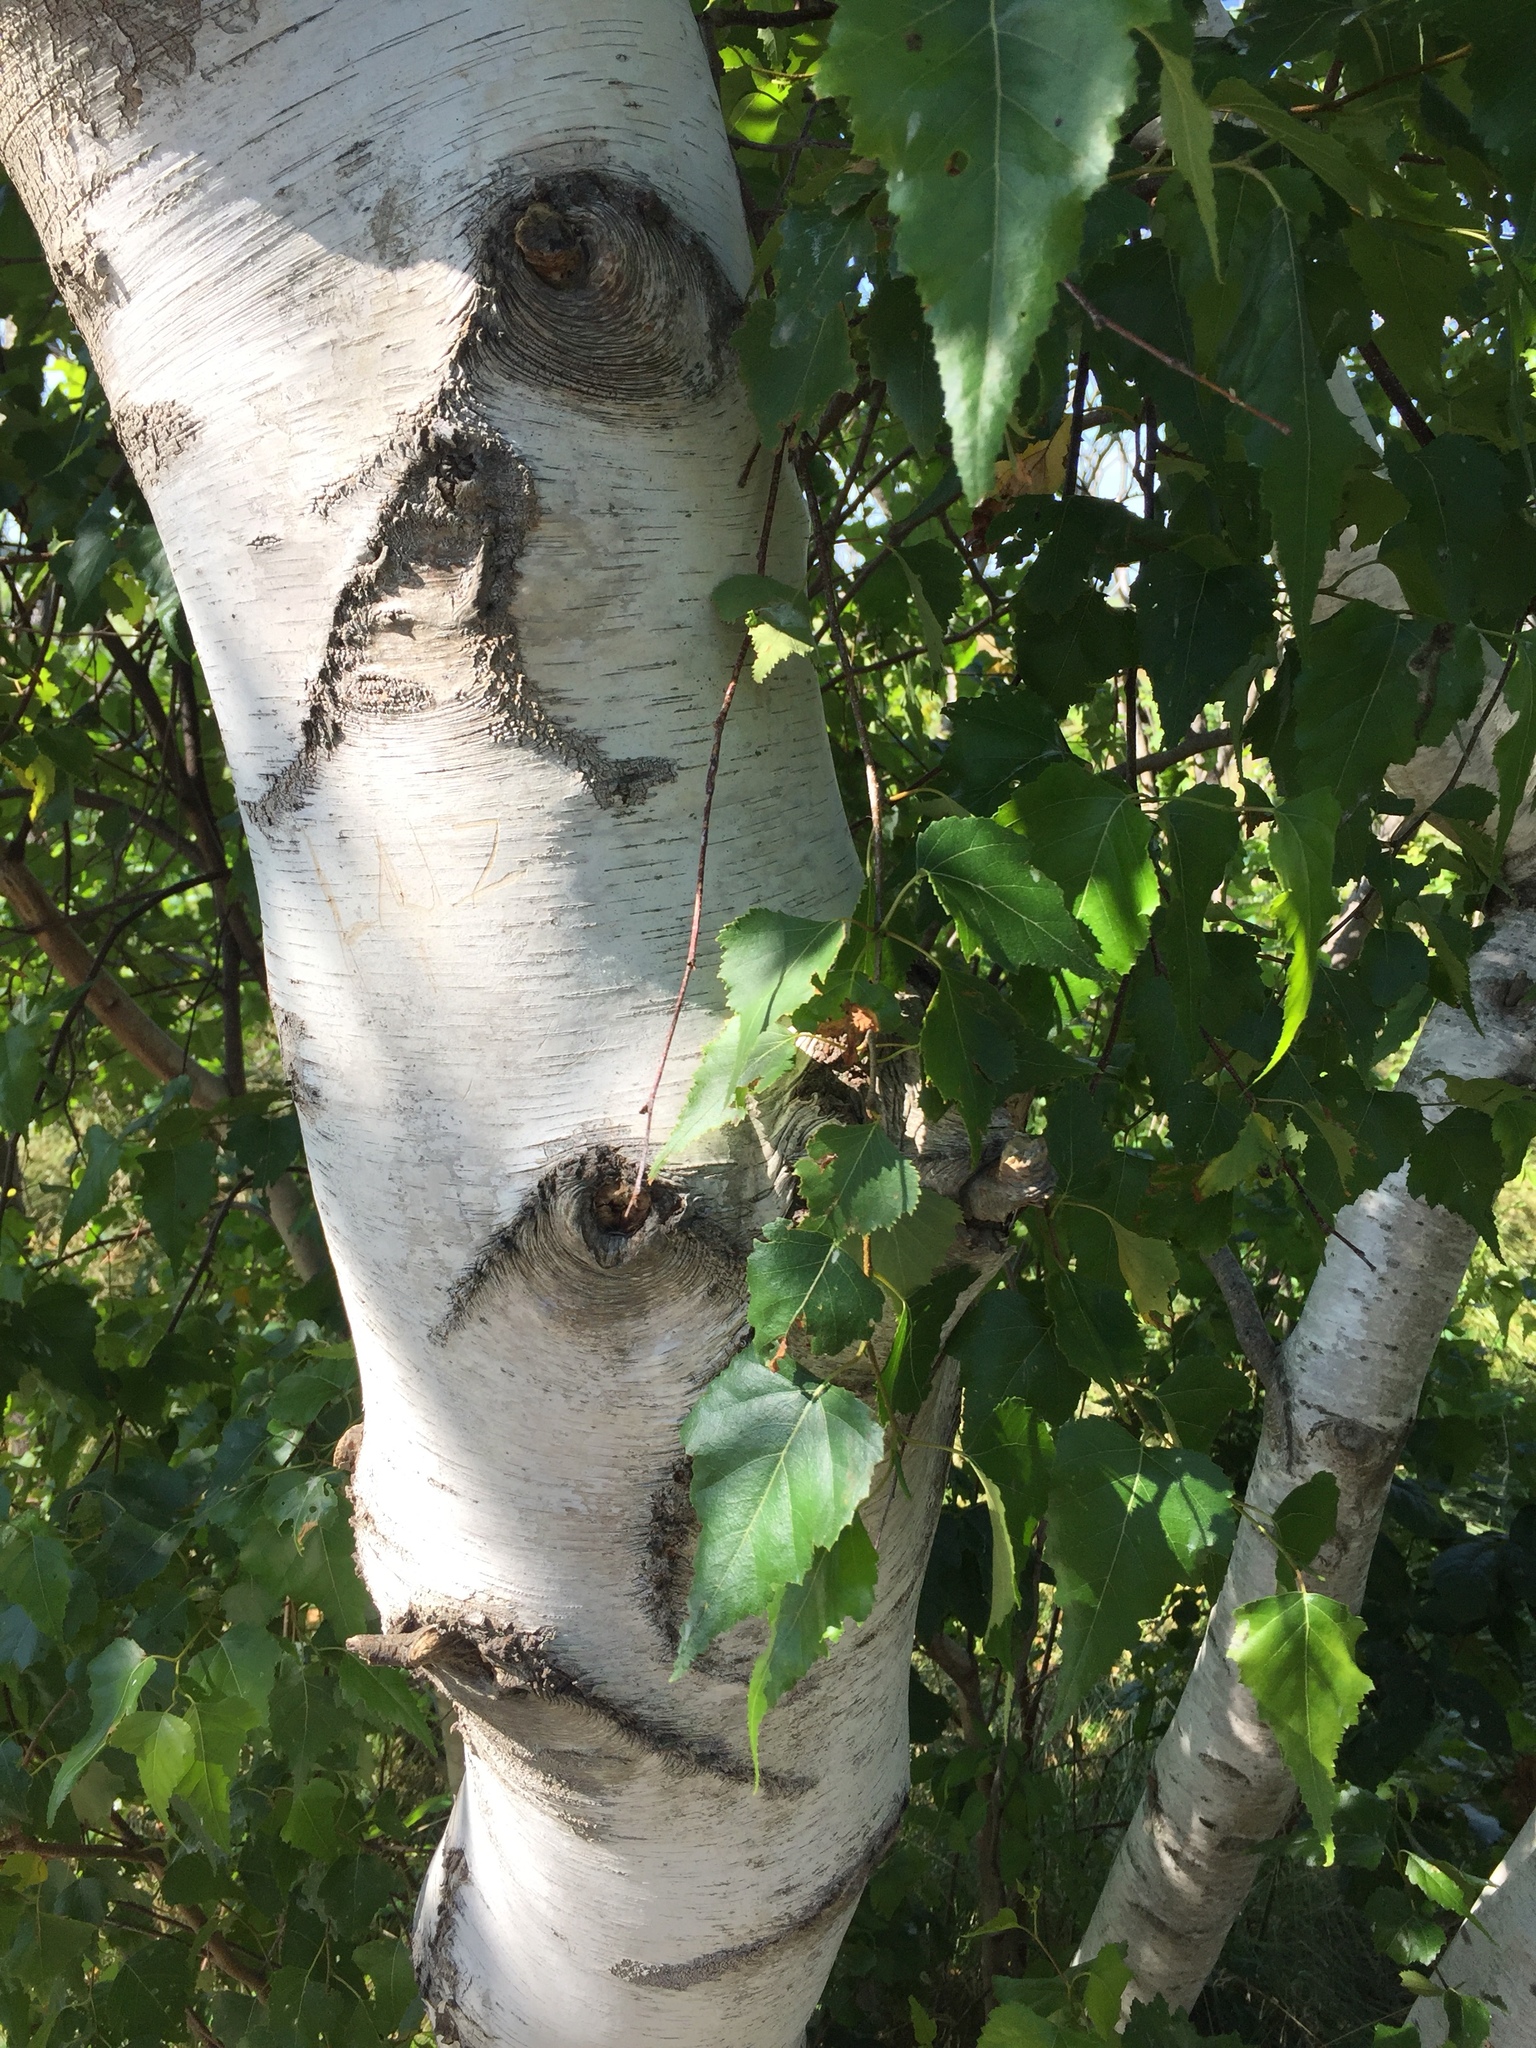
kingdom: Plantae
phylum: Tracheophyta
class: Magnoliopsida
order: Fagales
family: Betulaceae
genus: Betula
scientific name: Betula populifolia
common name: Fire birch
